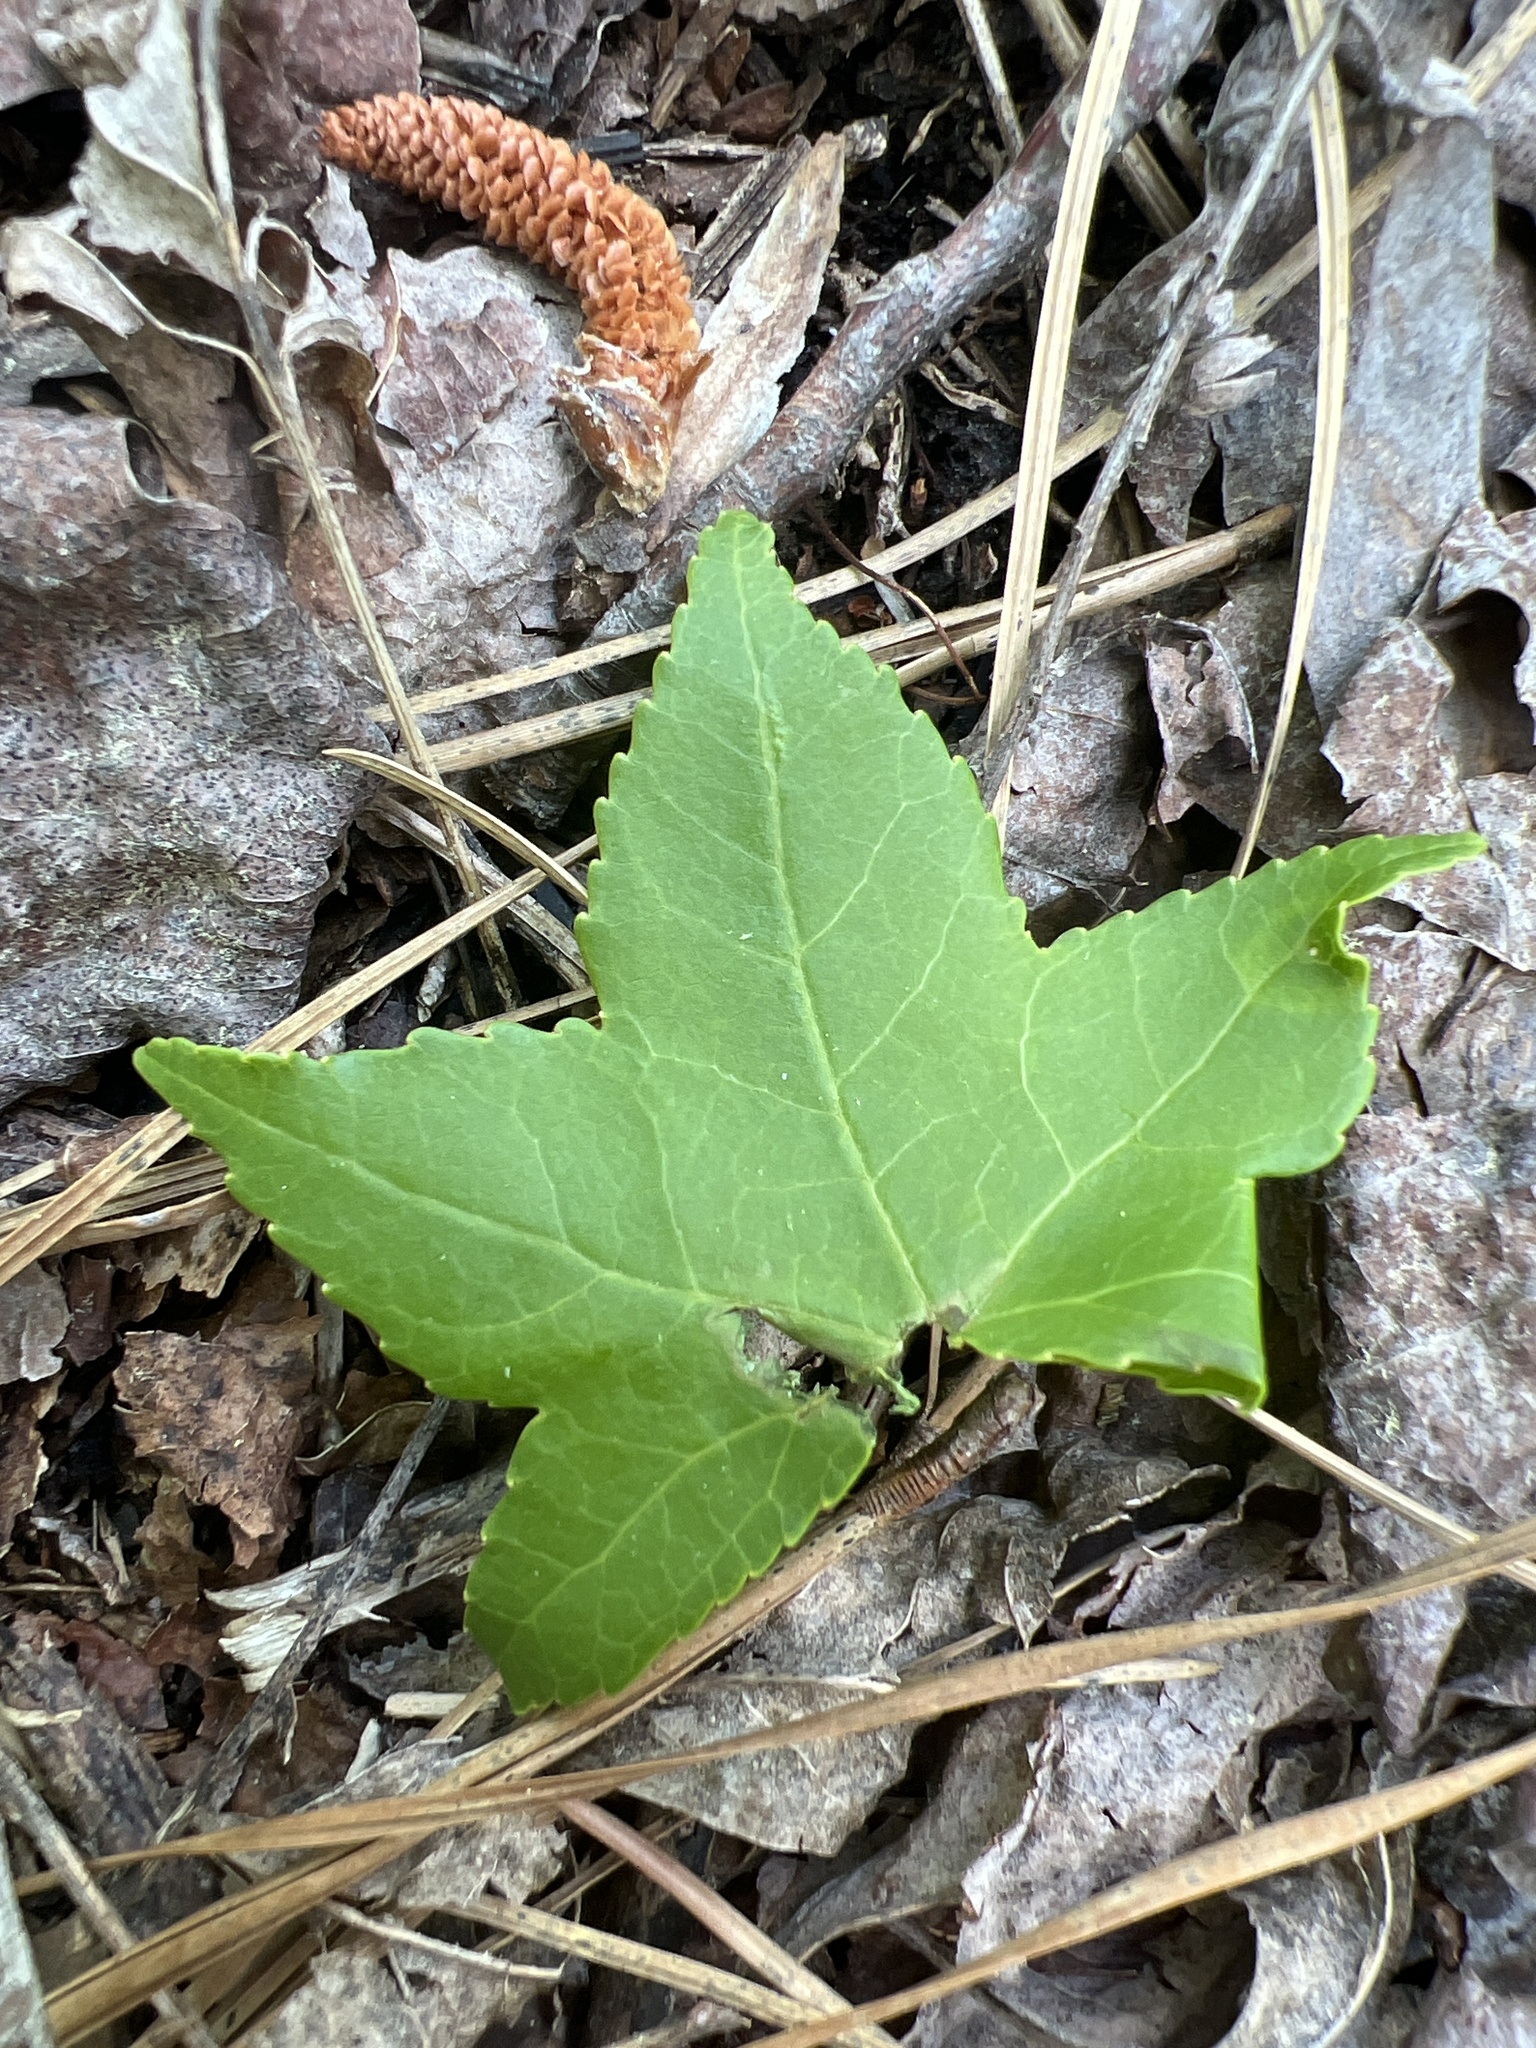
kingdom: Plantae
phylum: Tracheophyta
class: Magnoliopsida
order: Saxifragales
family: Altingiaceae
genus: Liquidambar
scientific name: Liquidambar styraciflua
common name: Sweet gum
